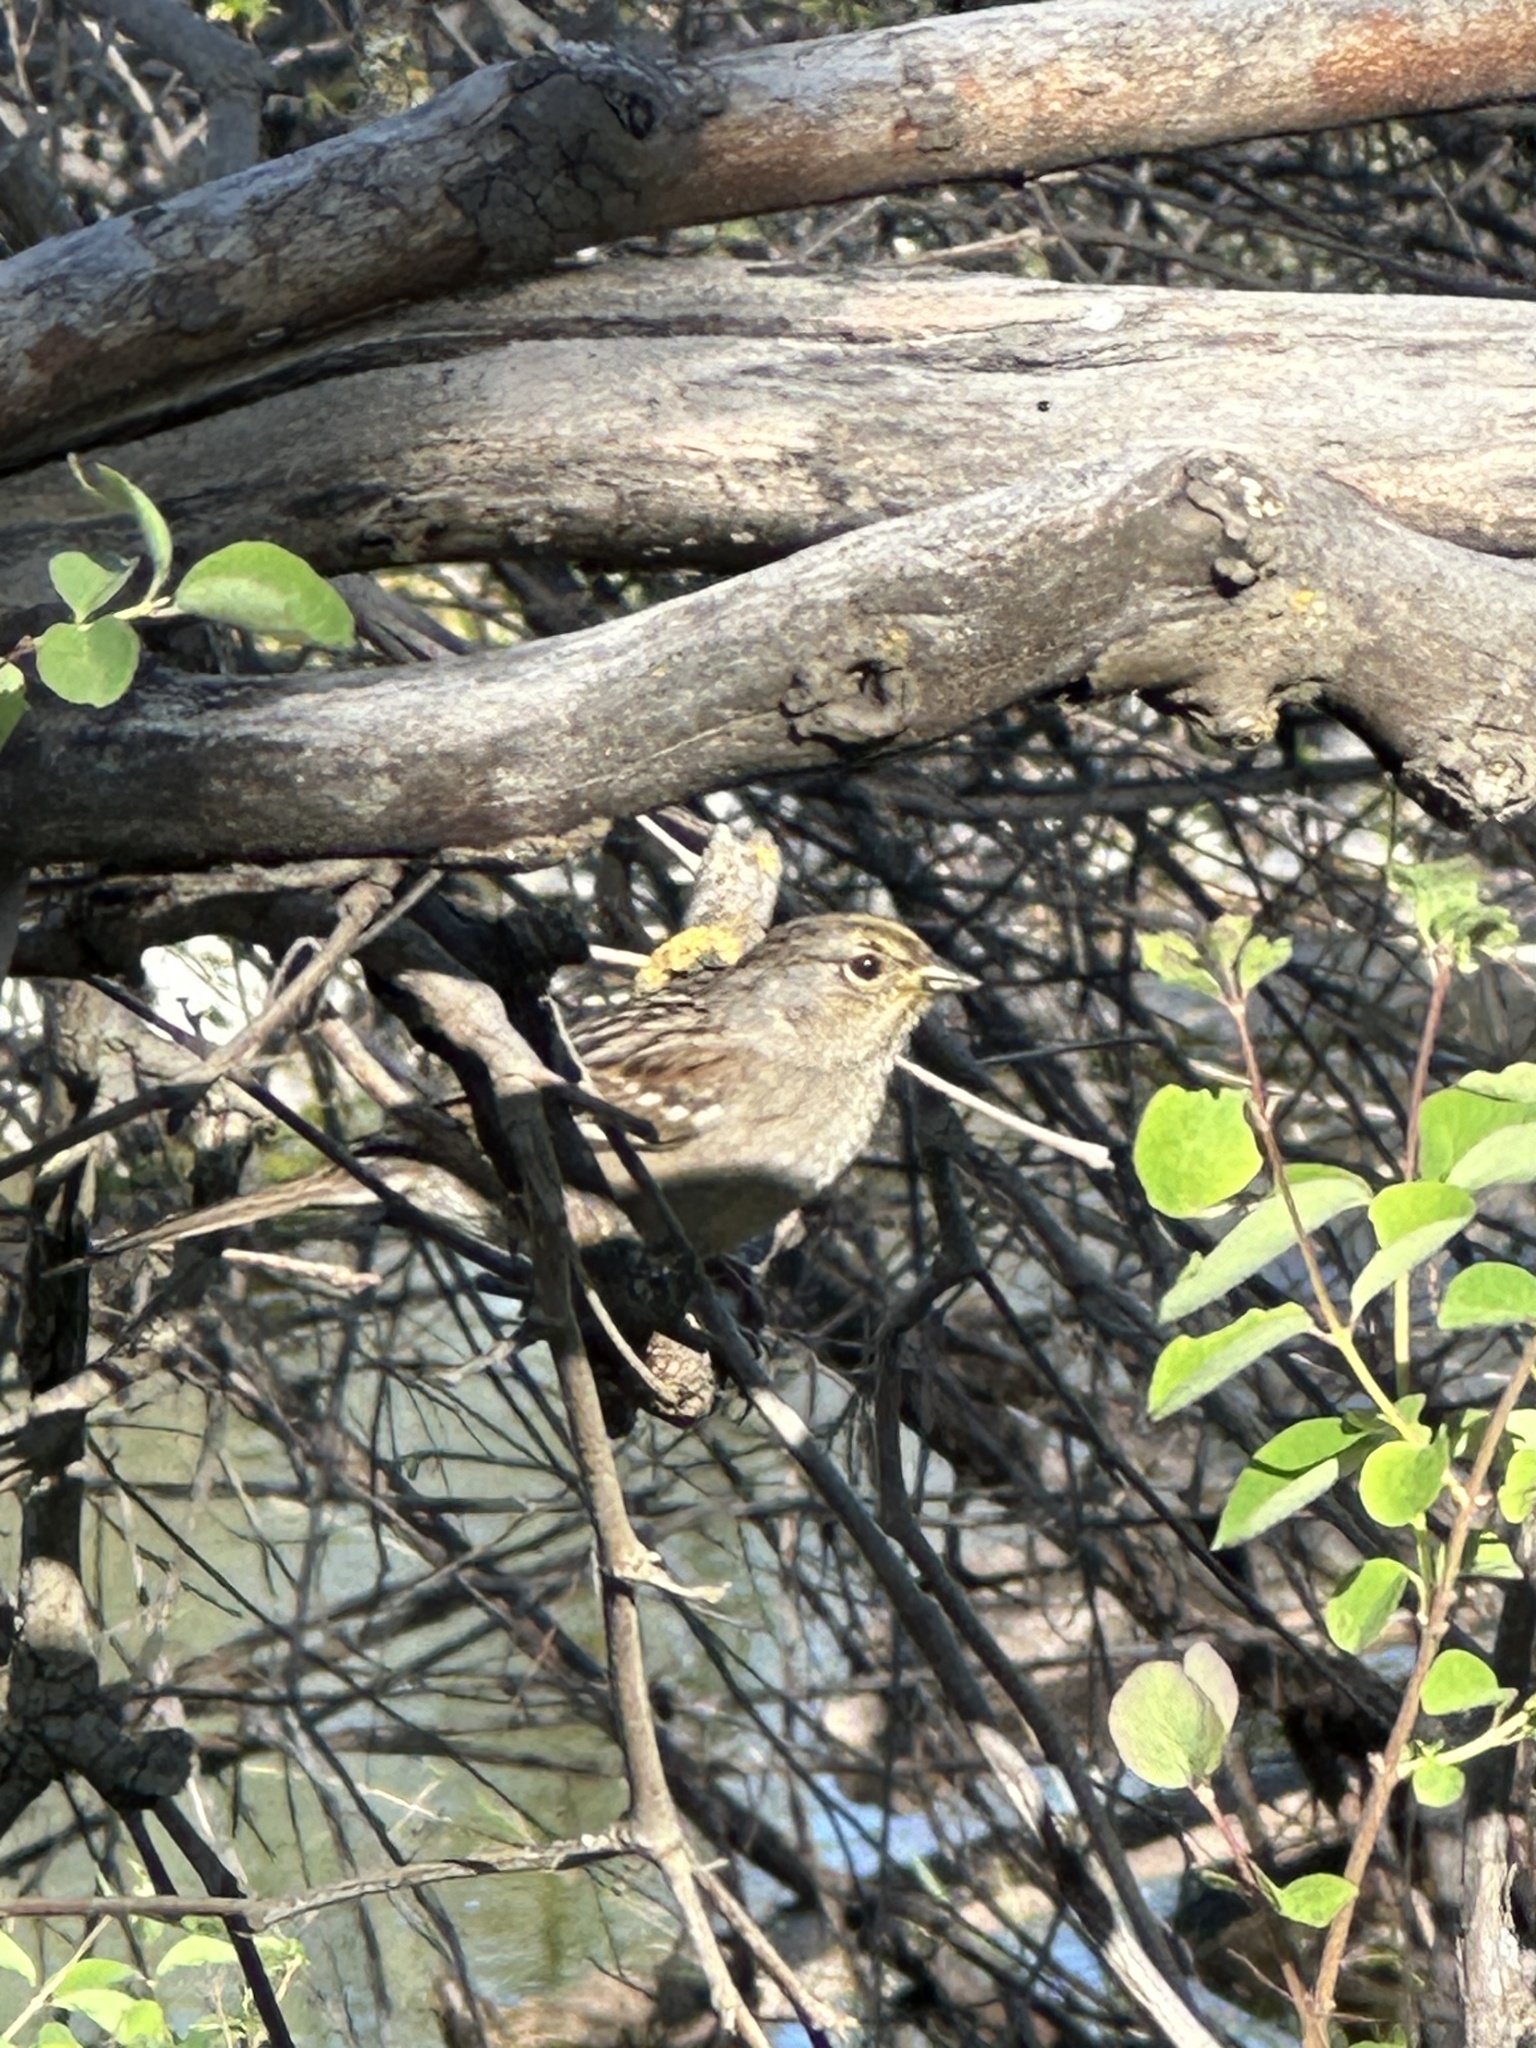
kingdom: Animalia
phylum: Chordata
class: Aves
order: Passeriformes
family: Passerellidae
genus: Zonotrichia
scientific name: Zonotrichia atricapilla
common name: Golden-crowned sparrow
